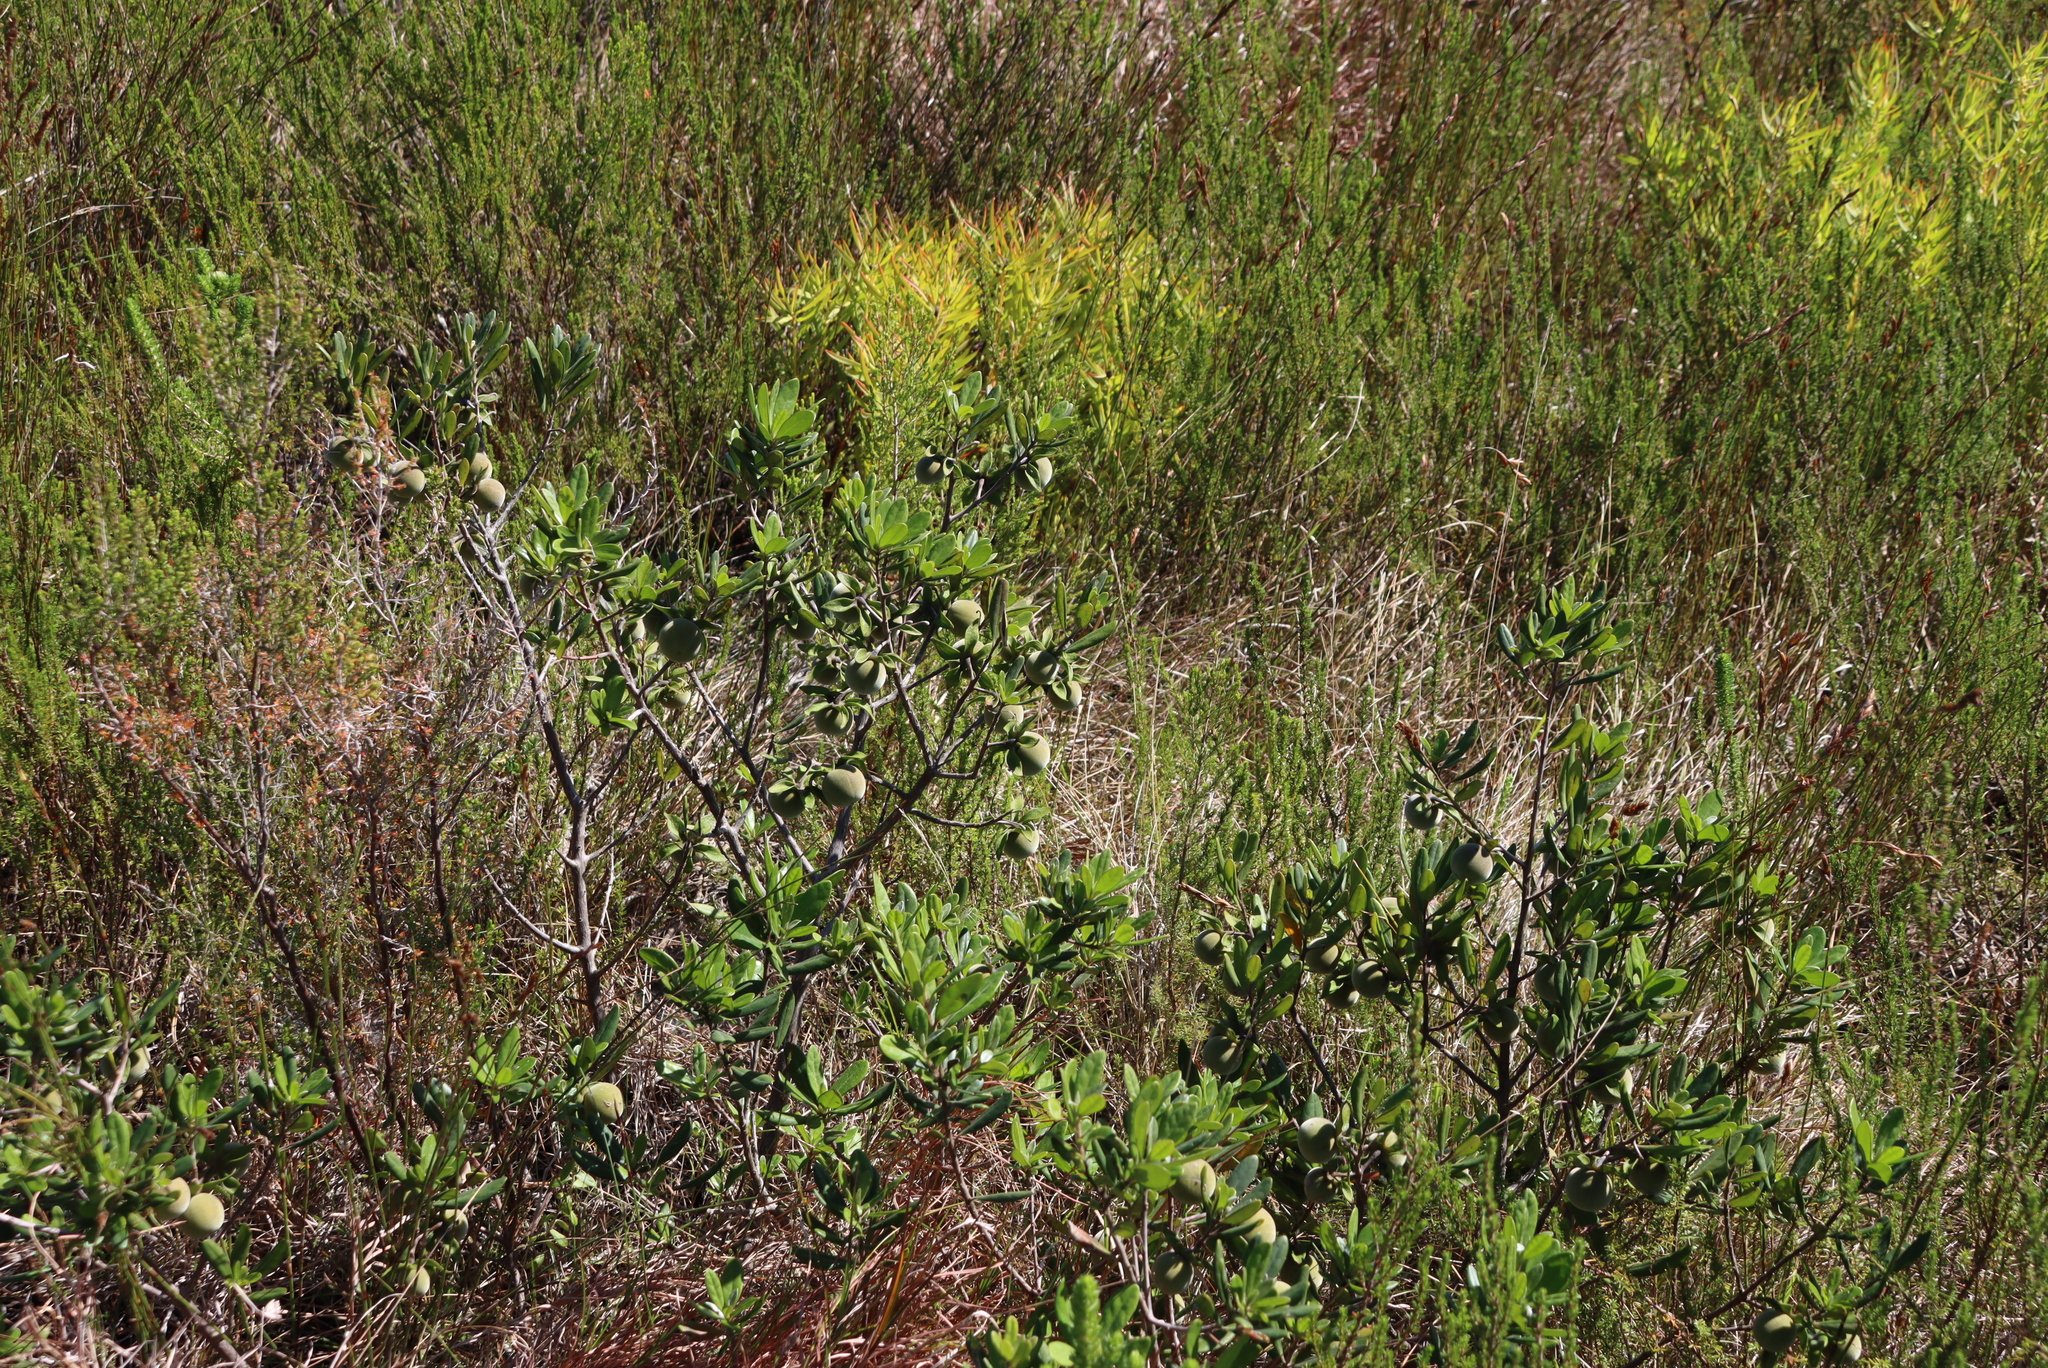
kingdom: Plantae
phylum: Tracheophyta
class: Magnoliopsida
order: Ericales
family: Ebenaceae
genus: Diospyros
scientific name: Diospyros dichrophylla
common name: Common star-apple
